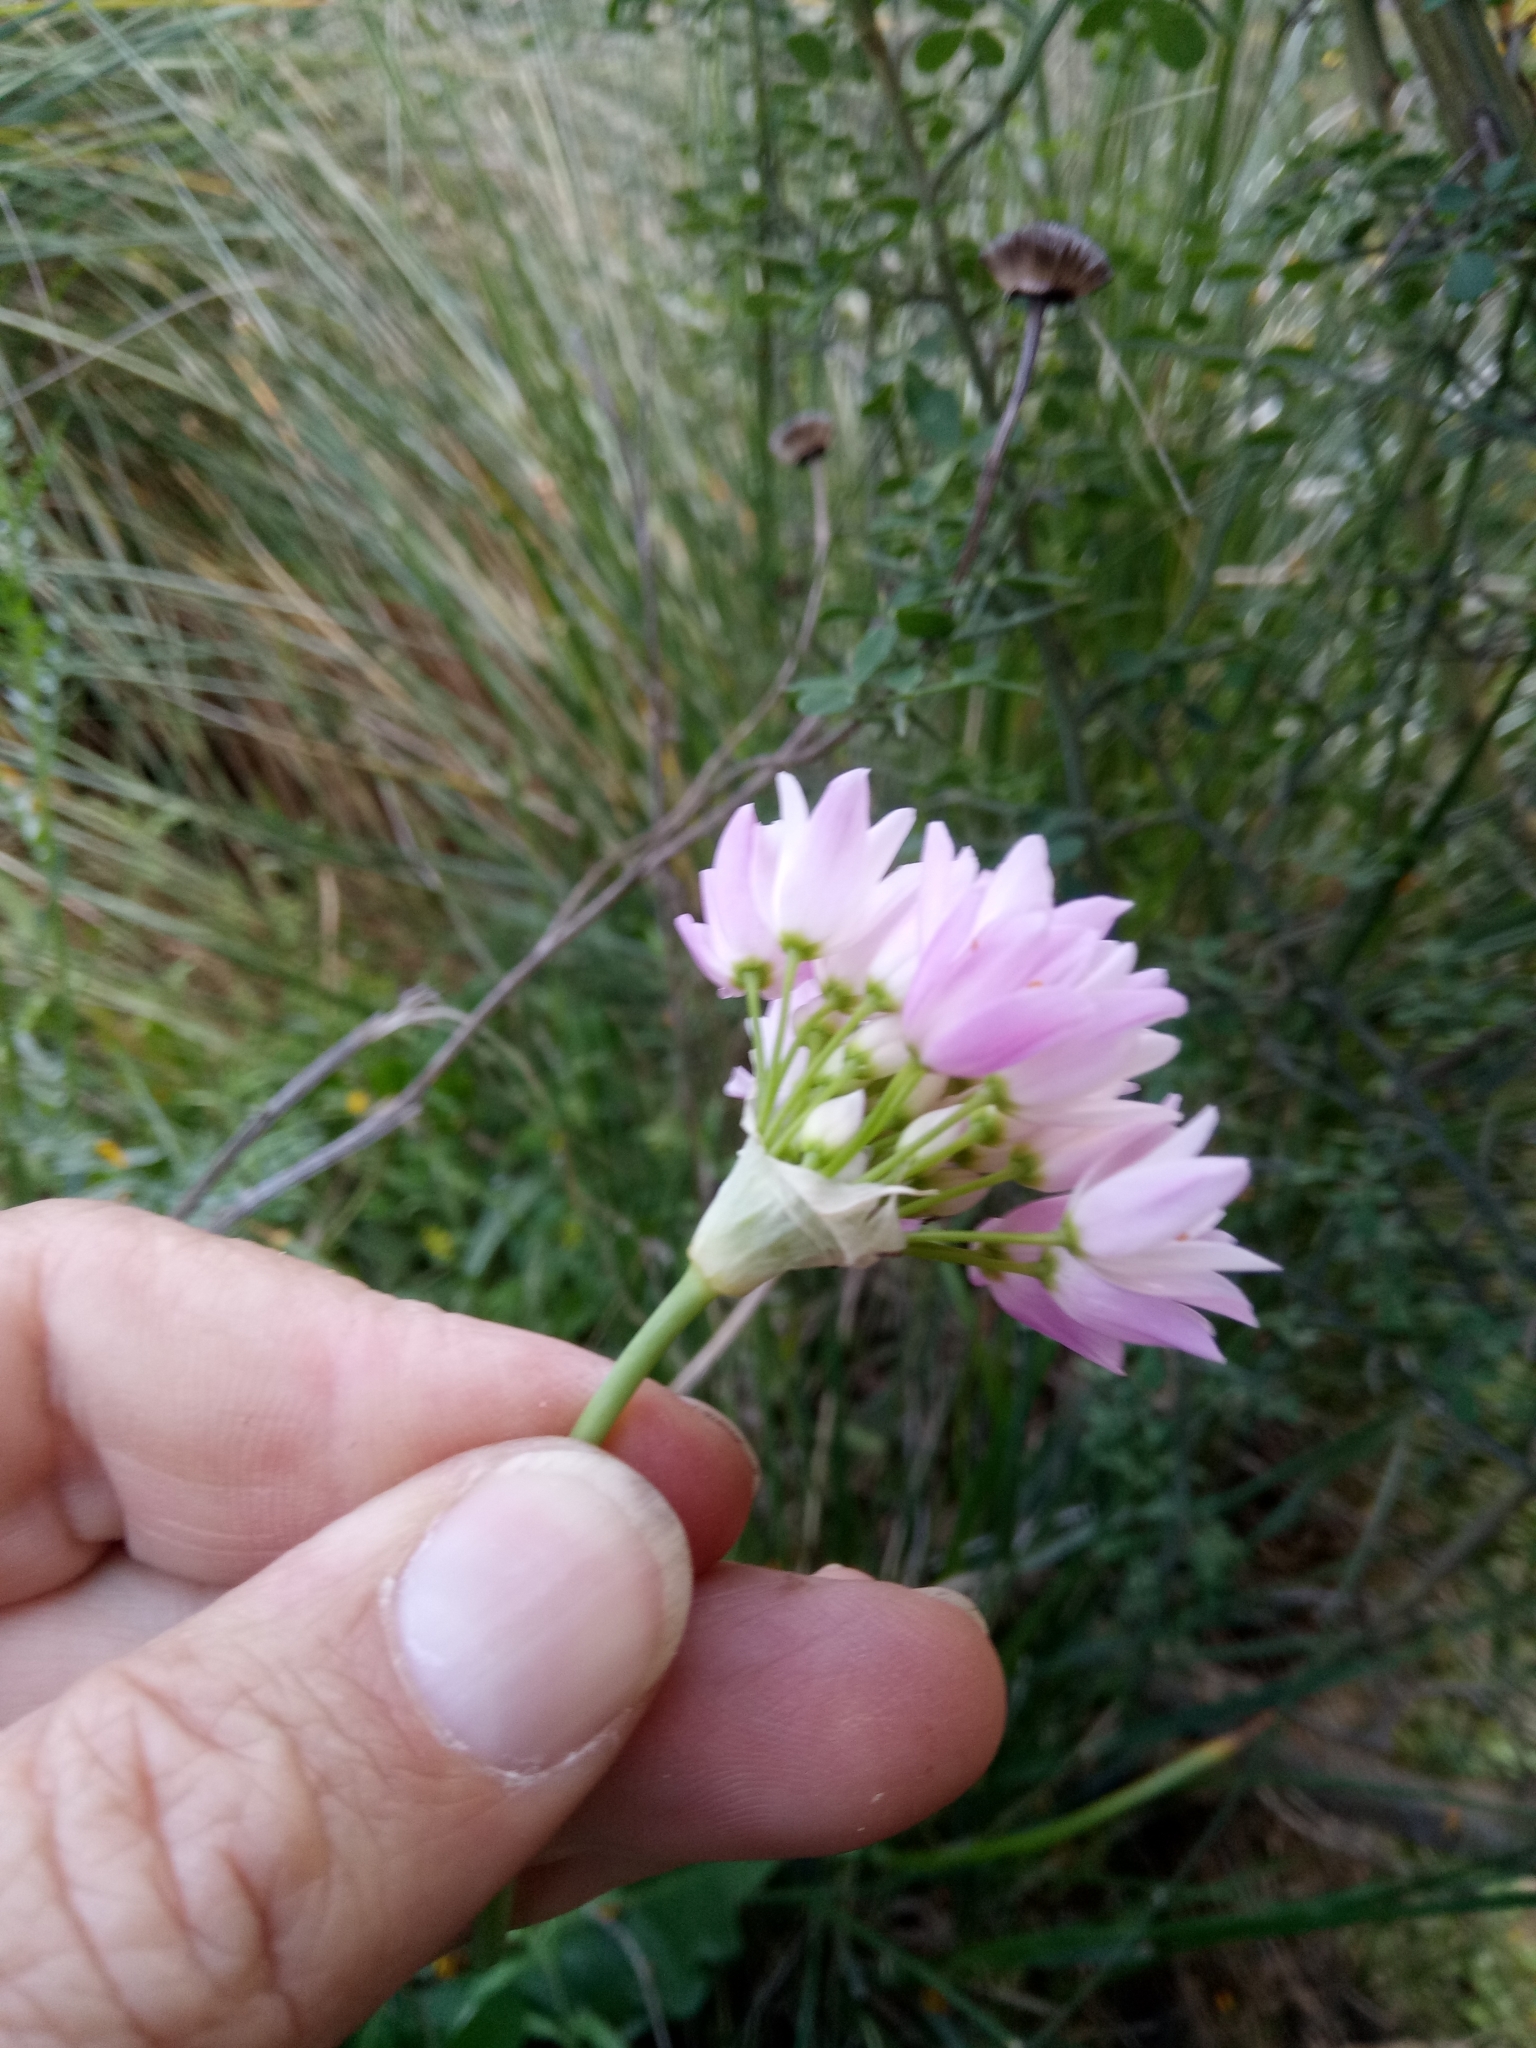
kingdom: Plantae
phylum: Tracheophyta
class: Liliopsida
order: Asparagales
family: Amaryllidaceae
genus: Allium
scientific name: Allium roseum
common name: Rosy garlic
